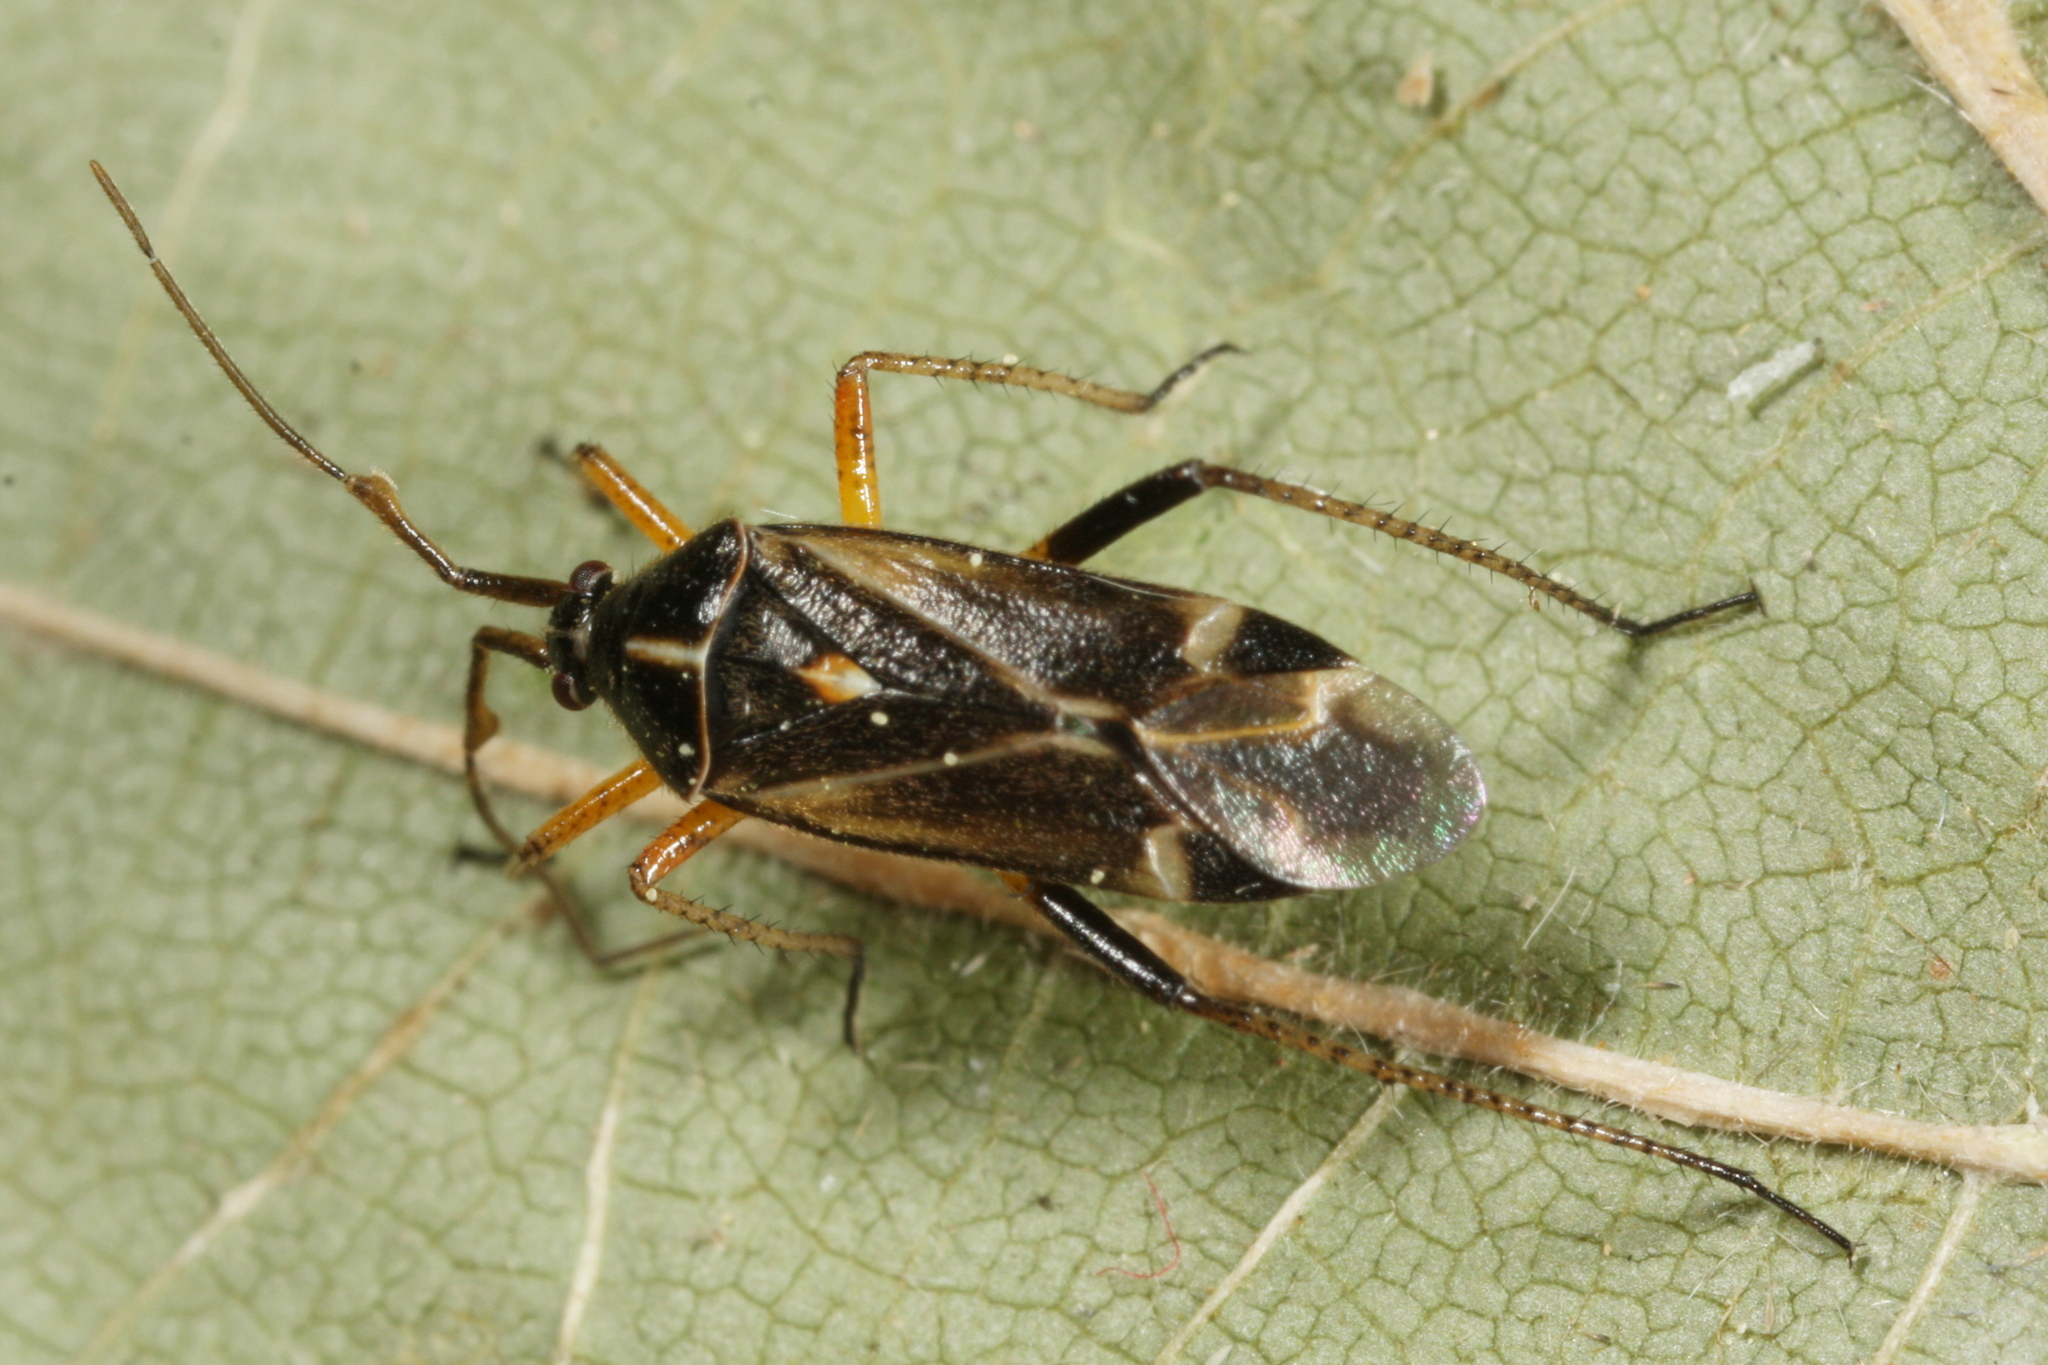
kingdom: Animalia
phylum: Arthropoda
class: Insecta
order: Hemiptera
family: Miridae
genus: Harpocera
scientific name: Harpocera thoracica
